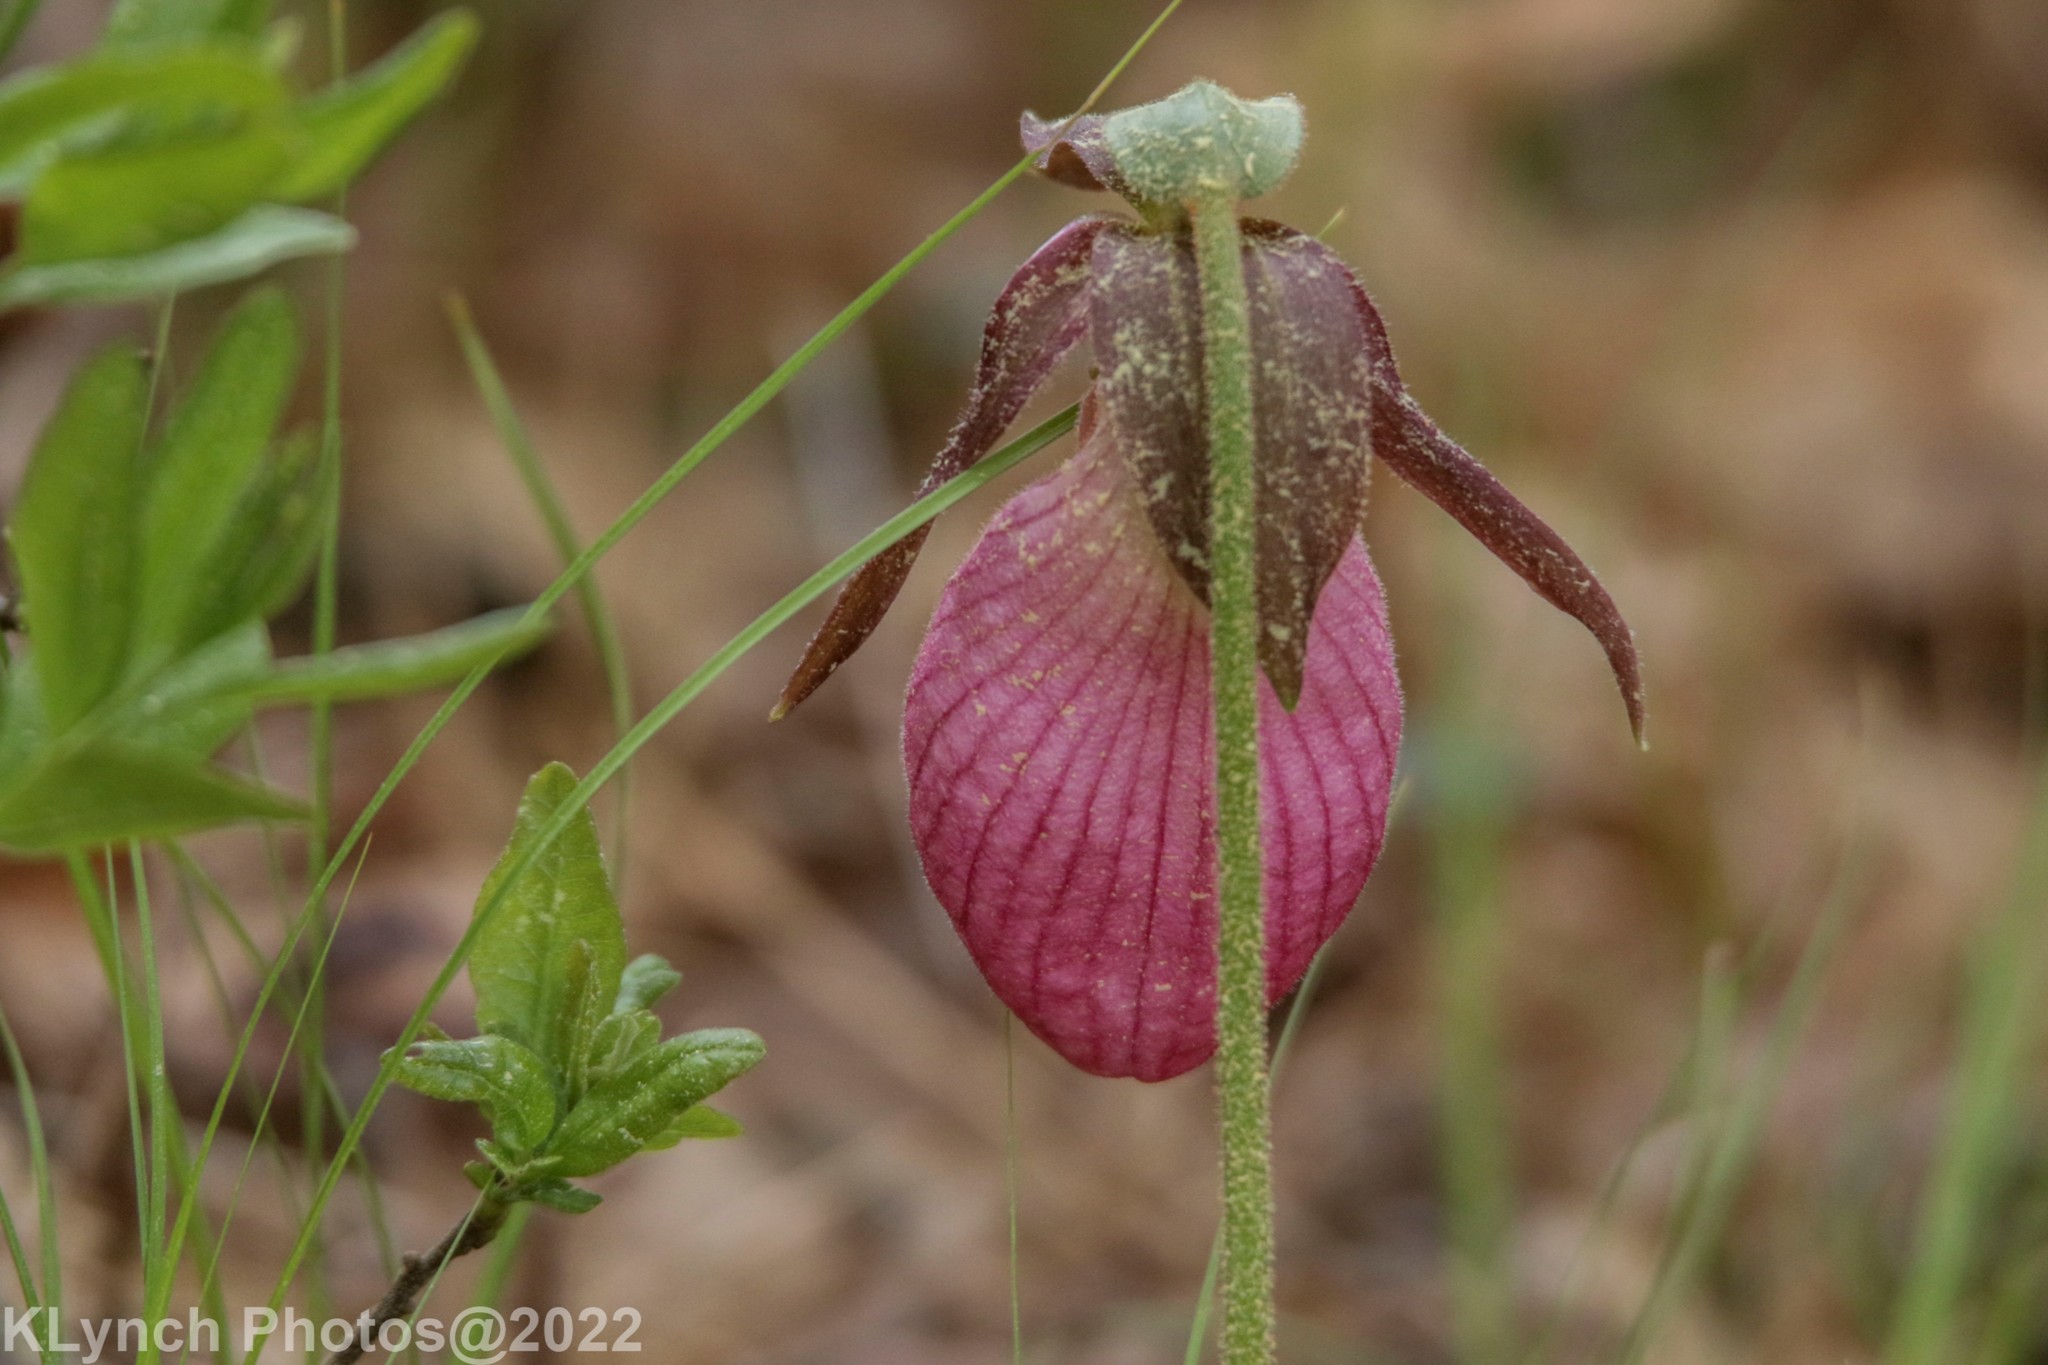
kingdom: Plantae
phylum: Tracheophyta
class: Liliopsida
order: Asparagales
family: Orchidaceae
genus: Cypripedium
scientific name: Cypripedium acaule
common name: Pink lady's-slipper
